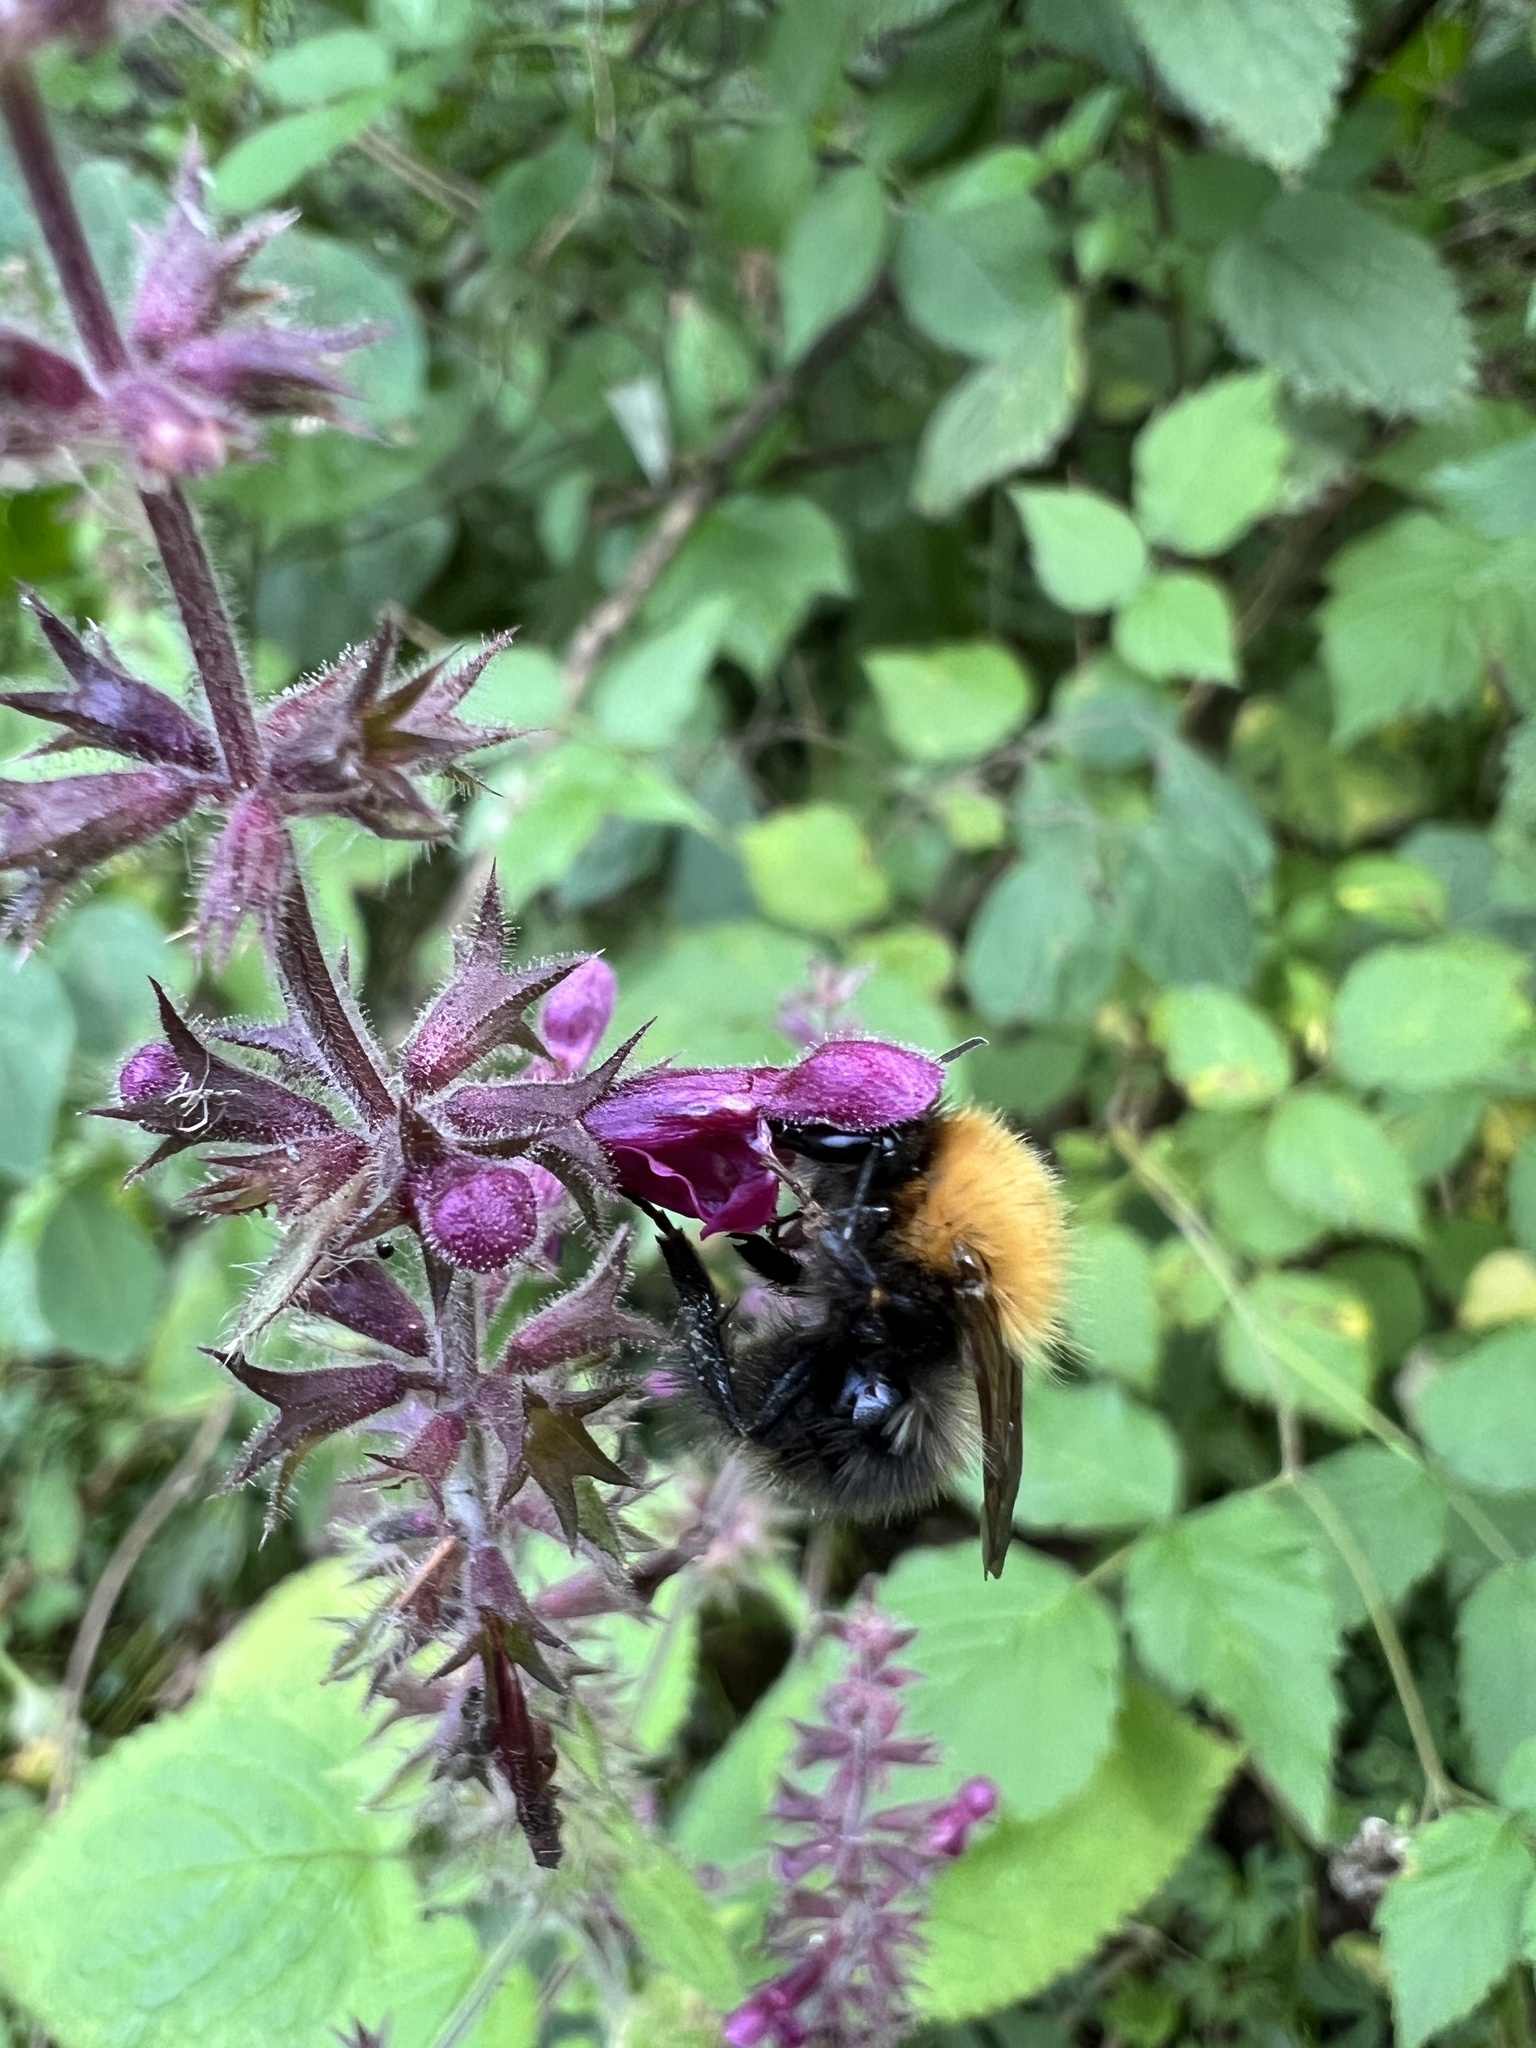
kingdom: Animalia
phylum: Arthropoda
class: Insecta
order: Hymenoptera
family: Apidae
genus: Bombus
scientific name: Bombus hypnorum
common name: New garden bumblebee
